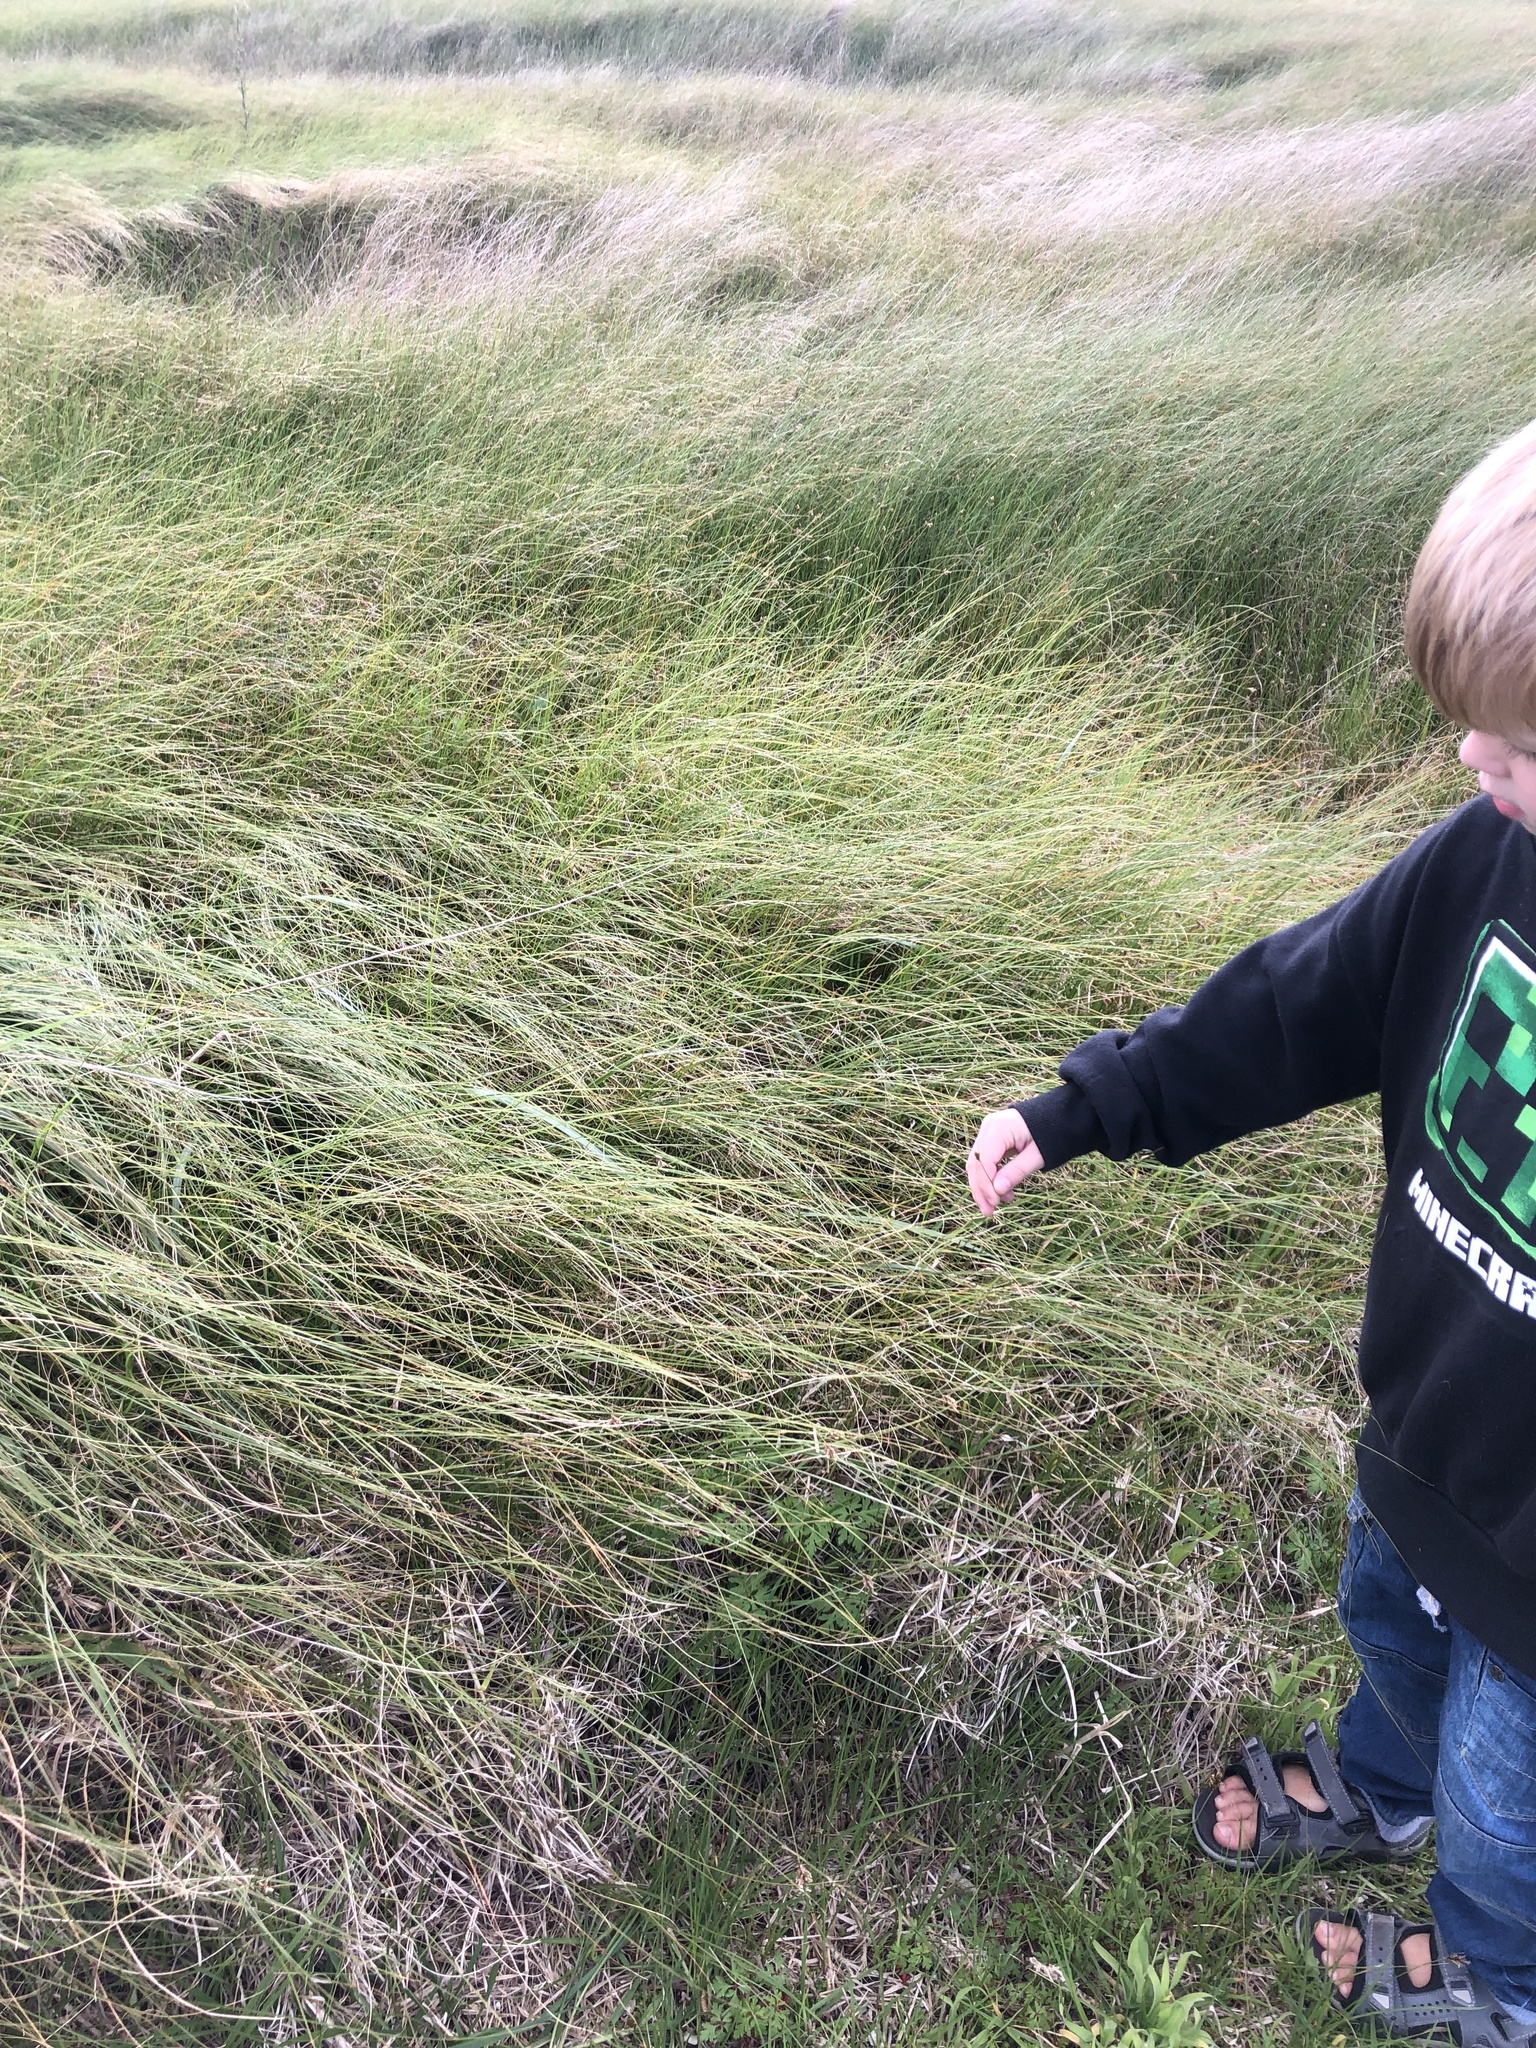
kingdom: Plantae
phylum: Tracheophyta
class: Liliopsida
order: Poales
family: Cyperaceae
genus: Carex
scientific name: Carex divisa
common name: Divided sedge
